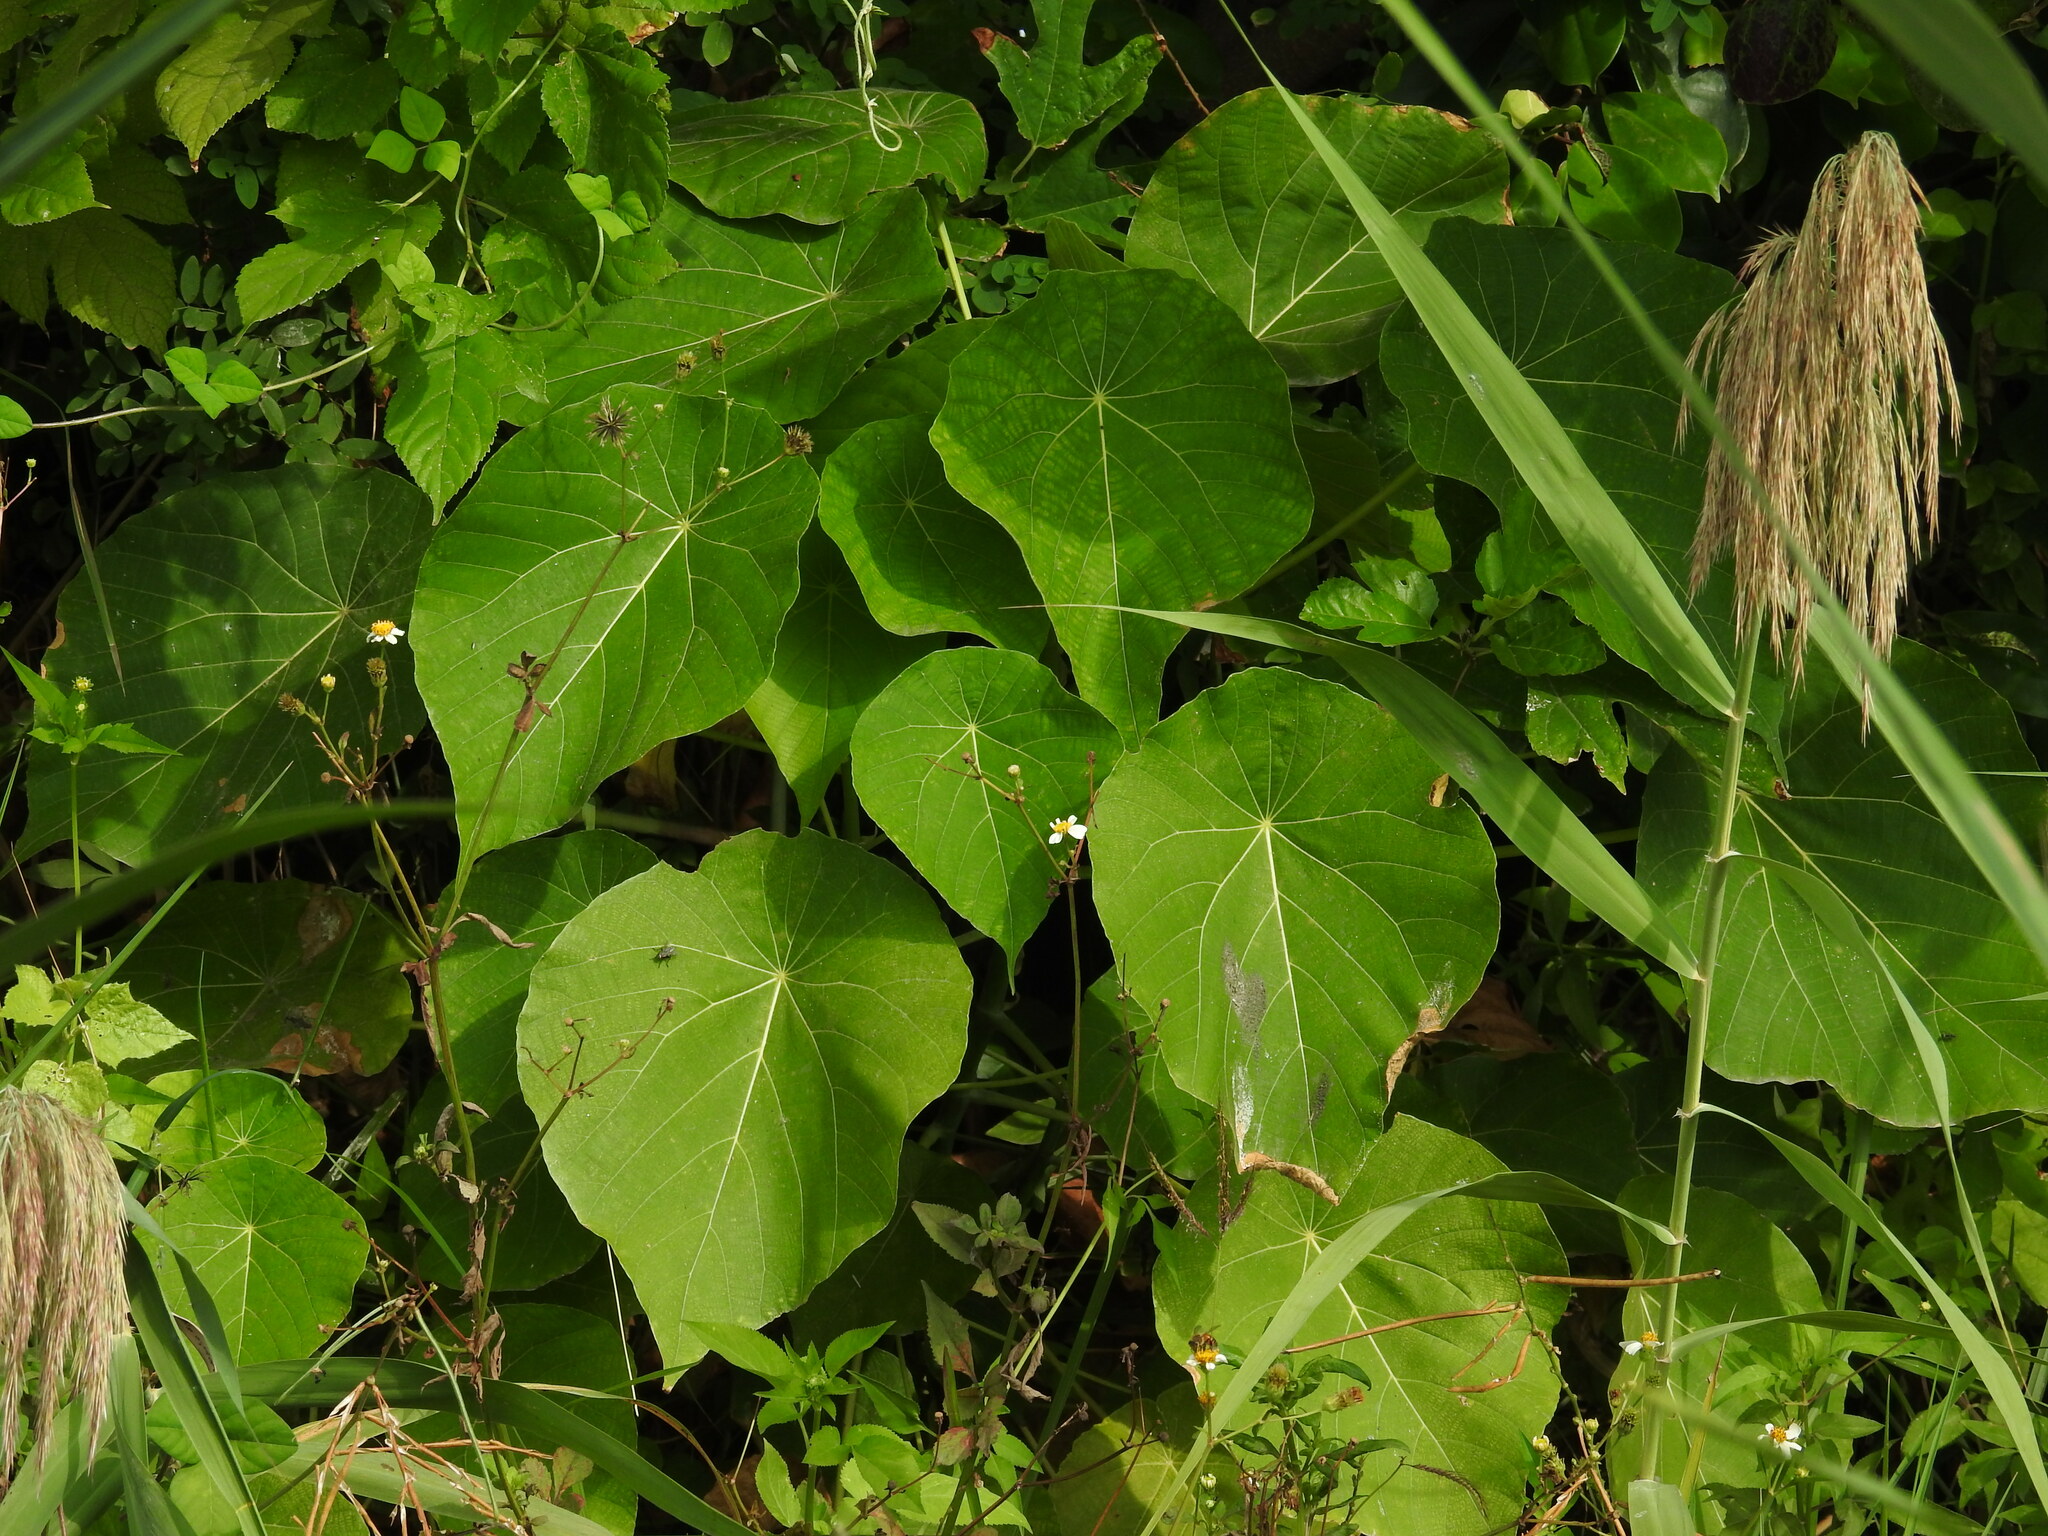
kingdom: Plantae
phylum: Tracheophyta
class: Magnoliopsida
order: Malpighiales
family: Euphorbiaceae
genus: Macaranga
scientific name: Macaranga tanarius
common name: Parasol leaf tree
